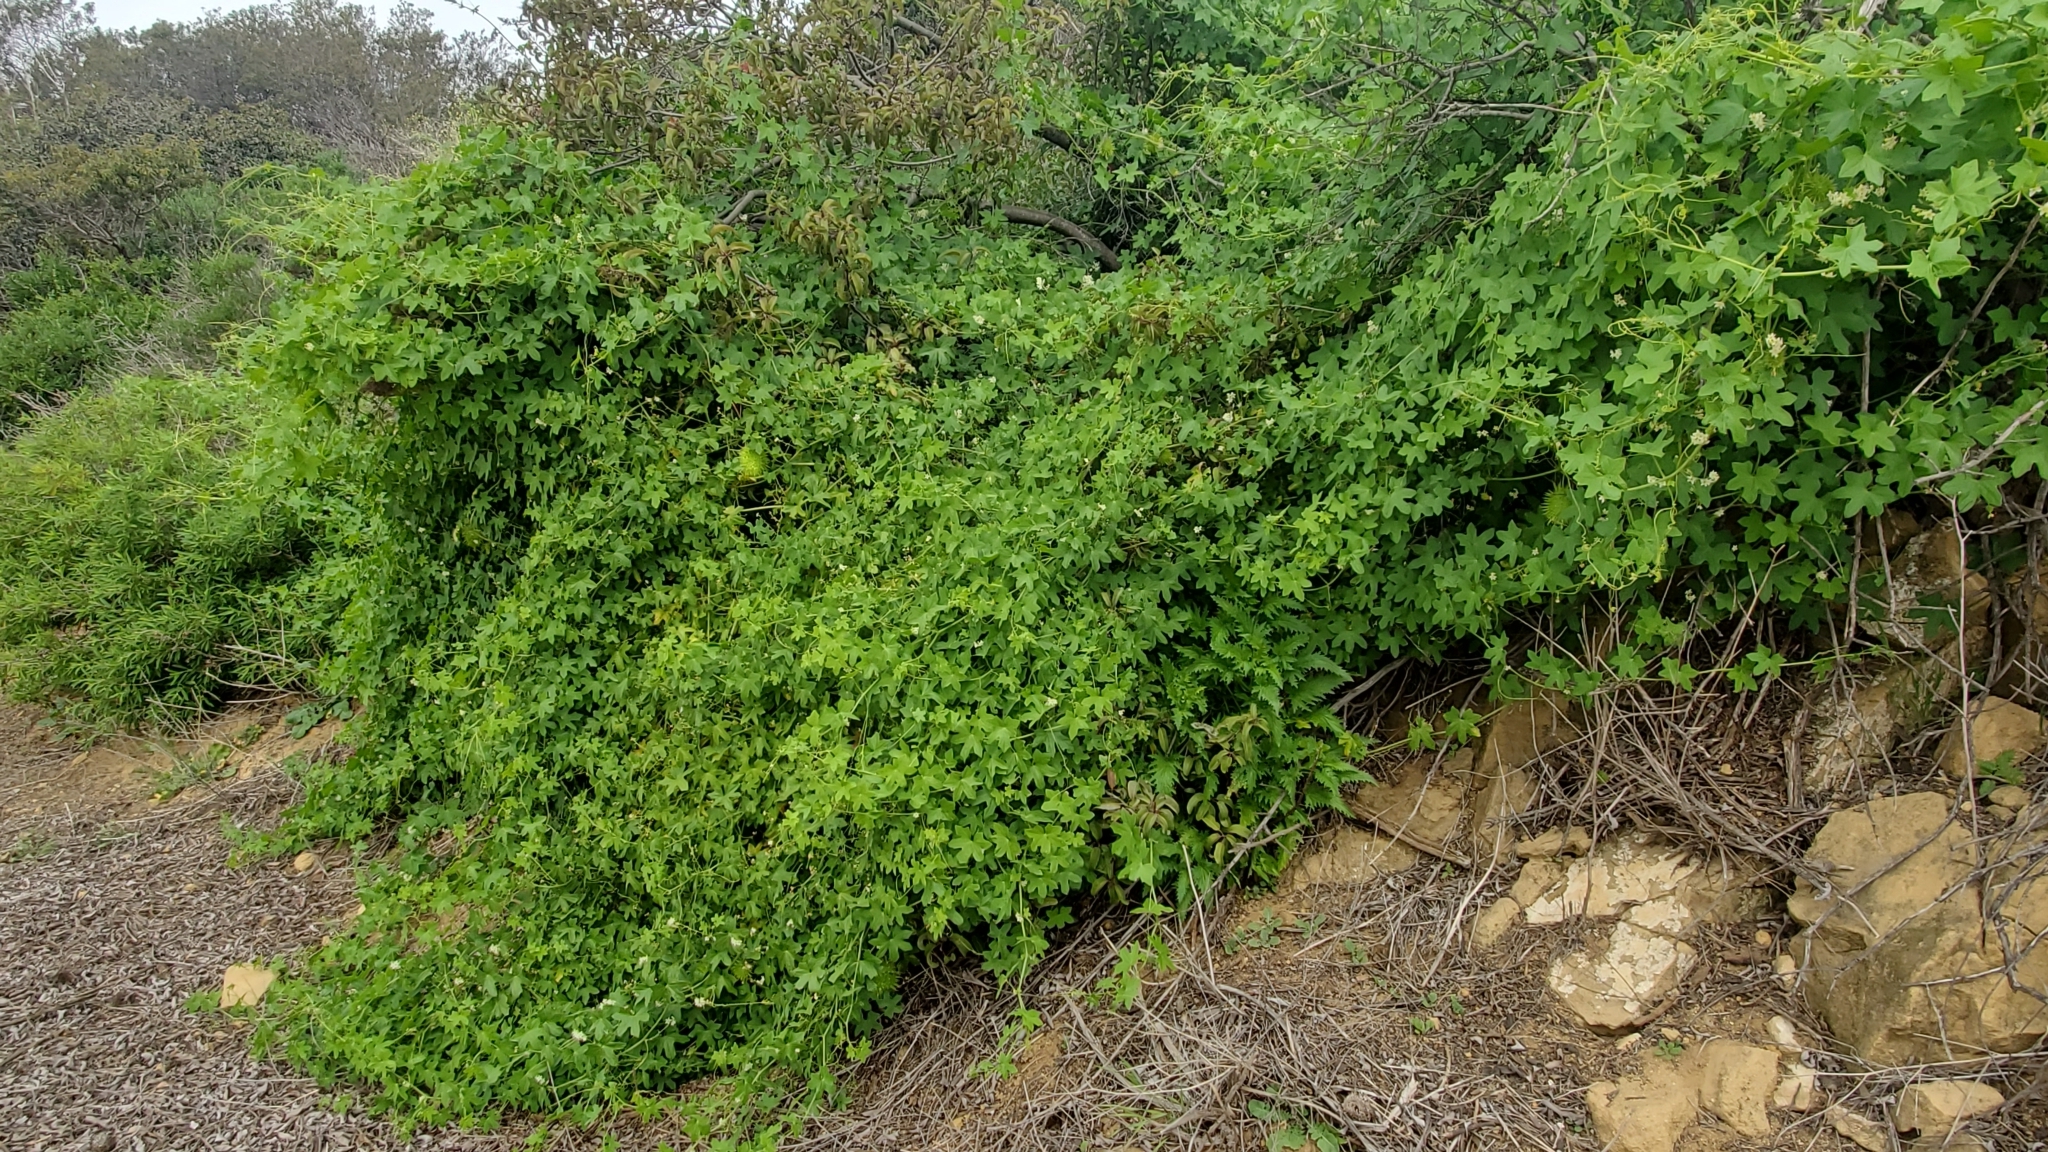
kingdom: Plantae
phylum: Tracheophyta
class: Magnoliopsida
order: Cucurbitales
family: Cucurbitaceae
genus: Marah
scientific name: Marah macrocarpa
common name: Cucamonga manroot
